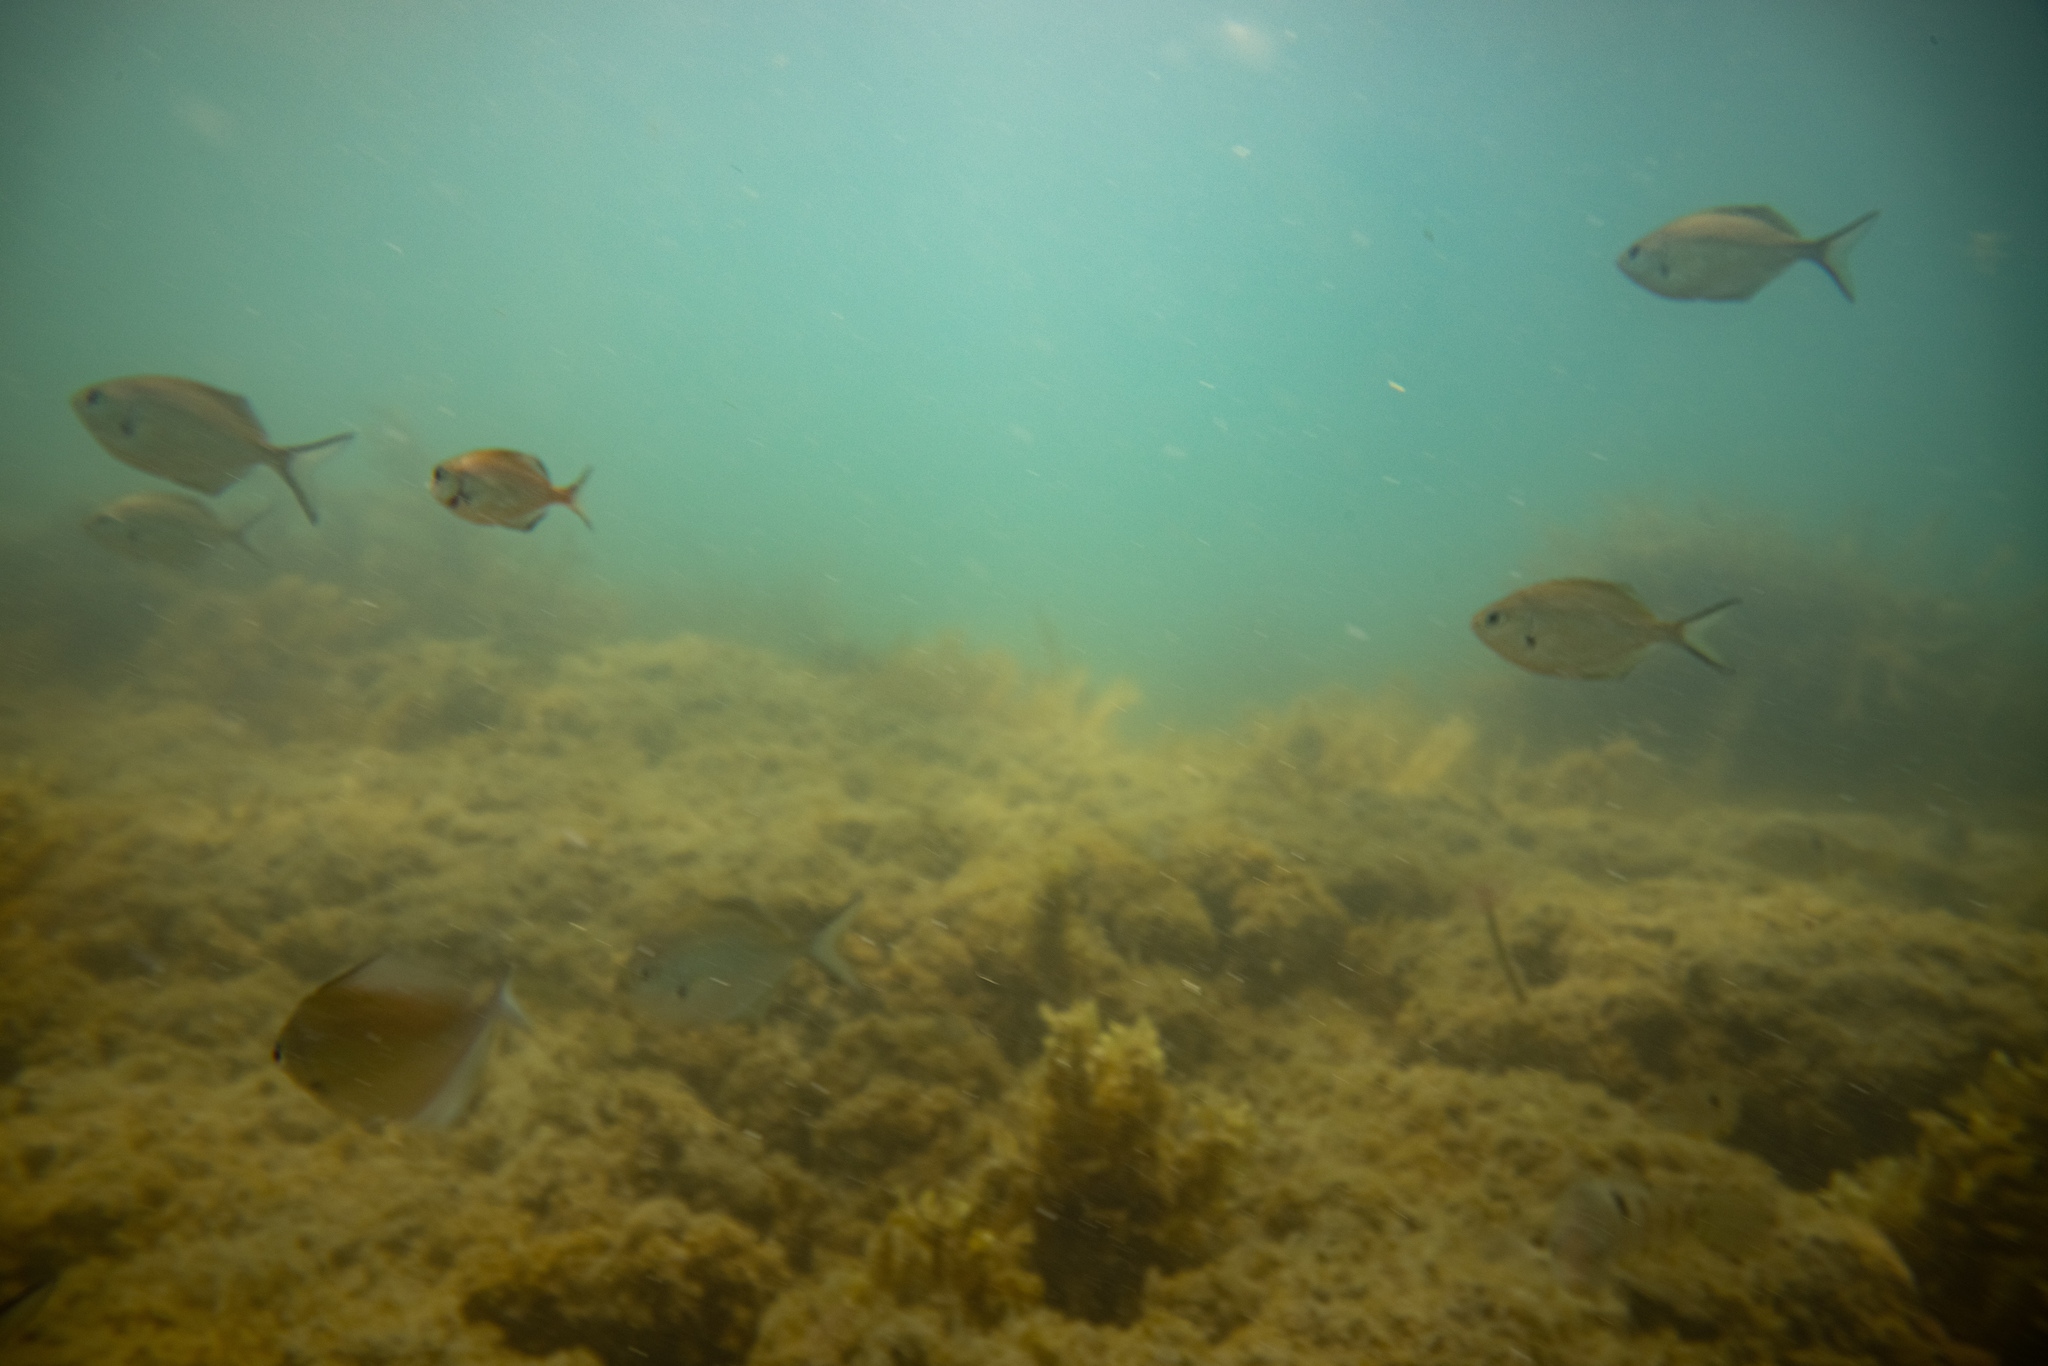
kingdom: Animalia
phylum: Chordata
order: Perciformes
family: Kyphosidae
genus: Scorpis
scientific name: Scorpis lineolata
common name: Sweep
